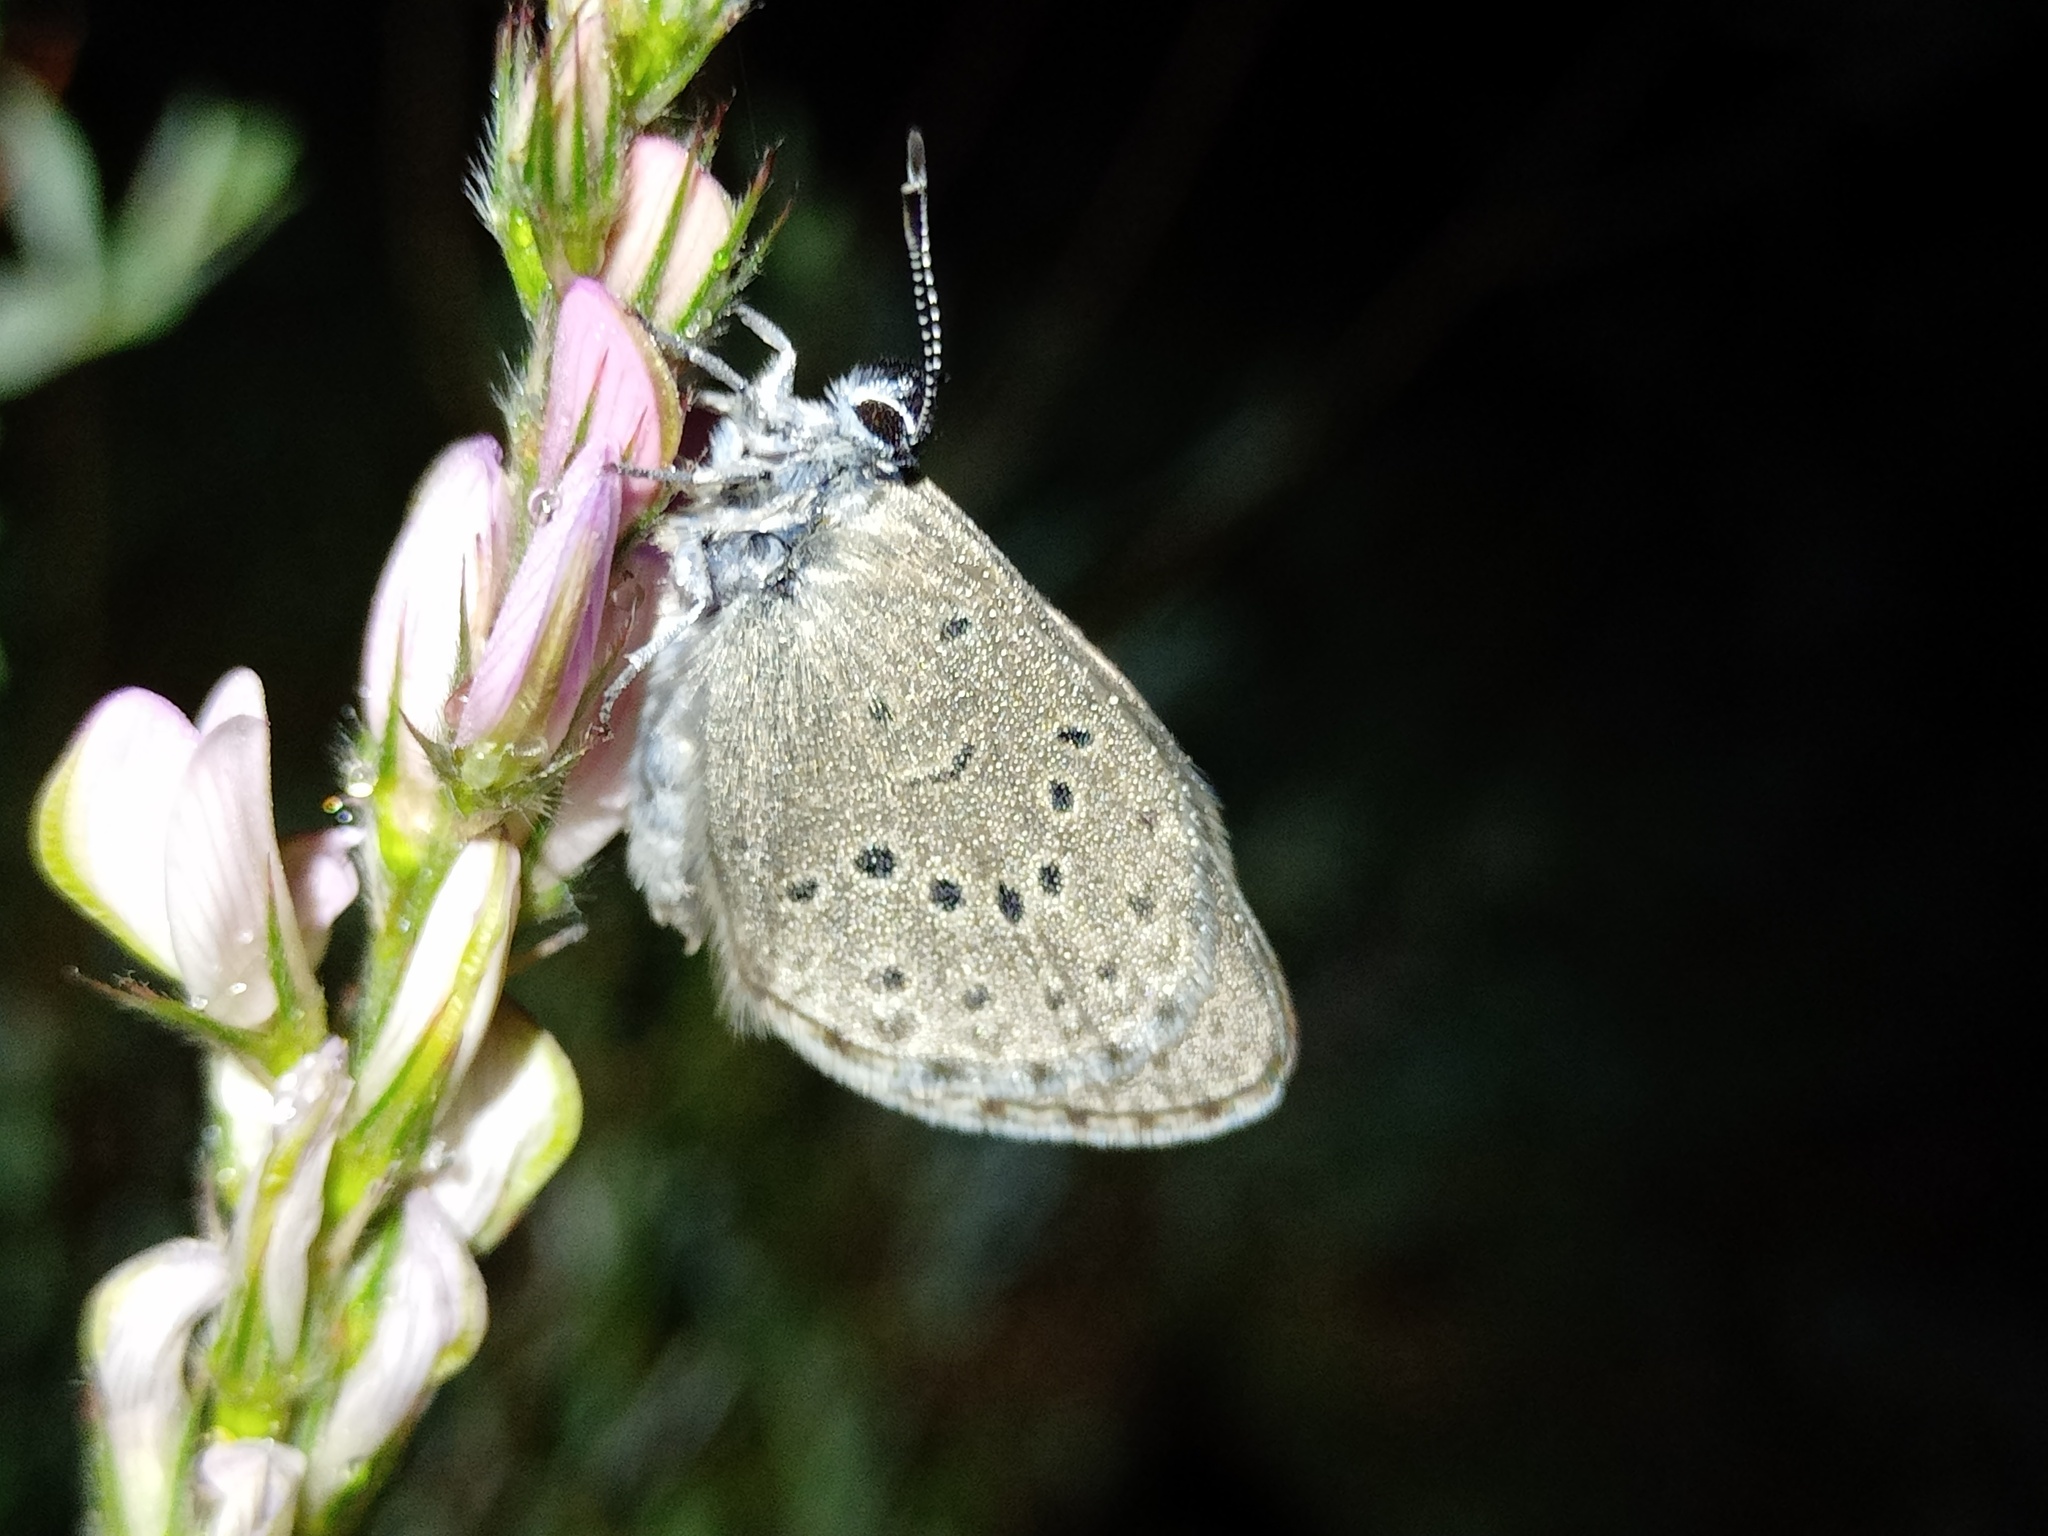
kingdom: Animalia
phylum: Arthropoda
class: Insecta
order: Lepidoptera
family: Lycaenidae
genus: Maculinea
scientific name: Maculinea alcon
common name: Alcon blue
